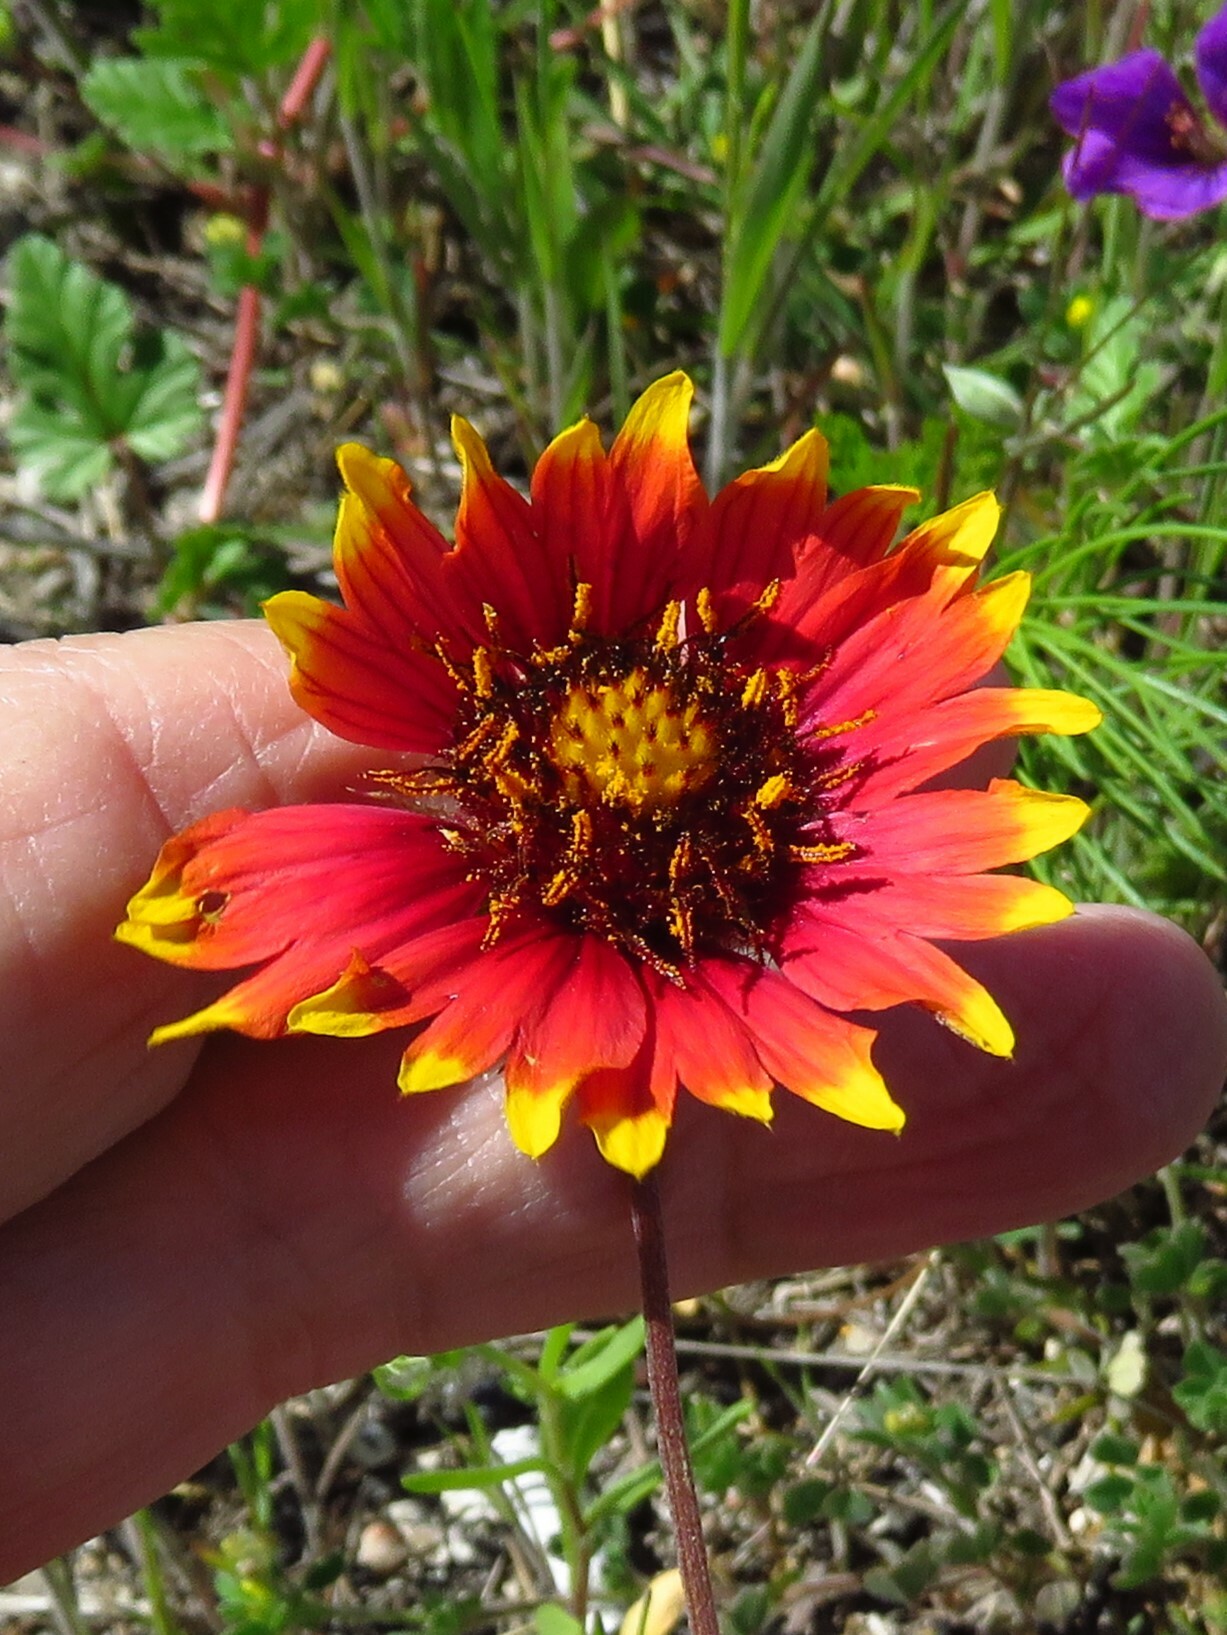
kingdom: Plantae
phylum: Tracheophyta
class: Magnoliopsida
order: Asterales
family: Asteraceae
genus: Gaillardia
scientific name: Gaillardia pulchella
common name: Firewheel
